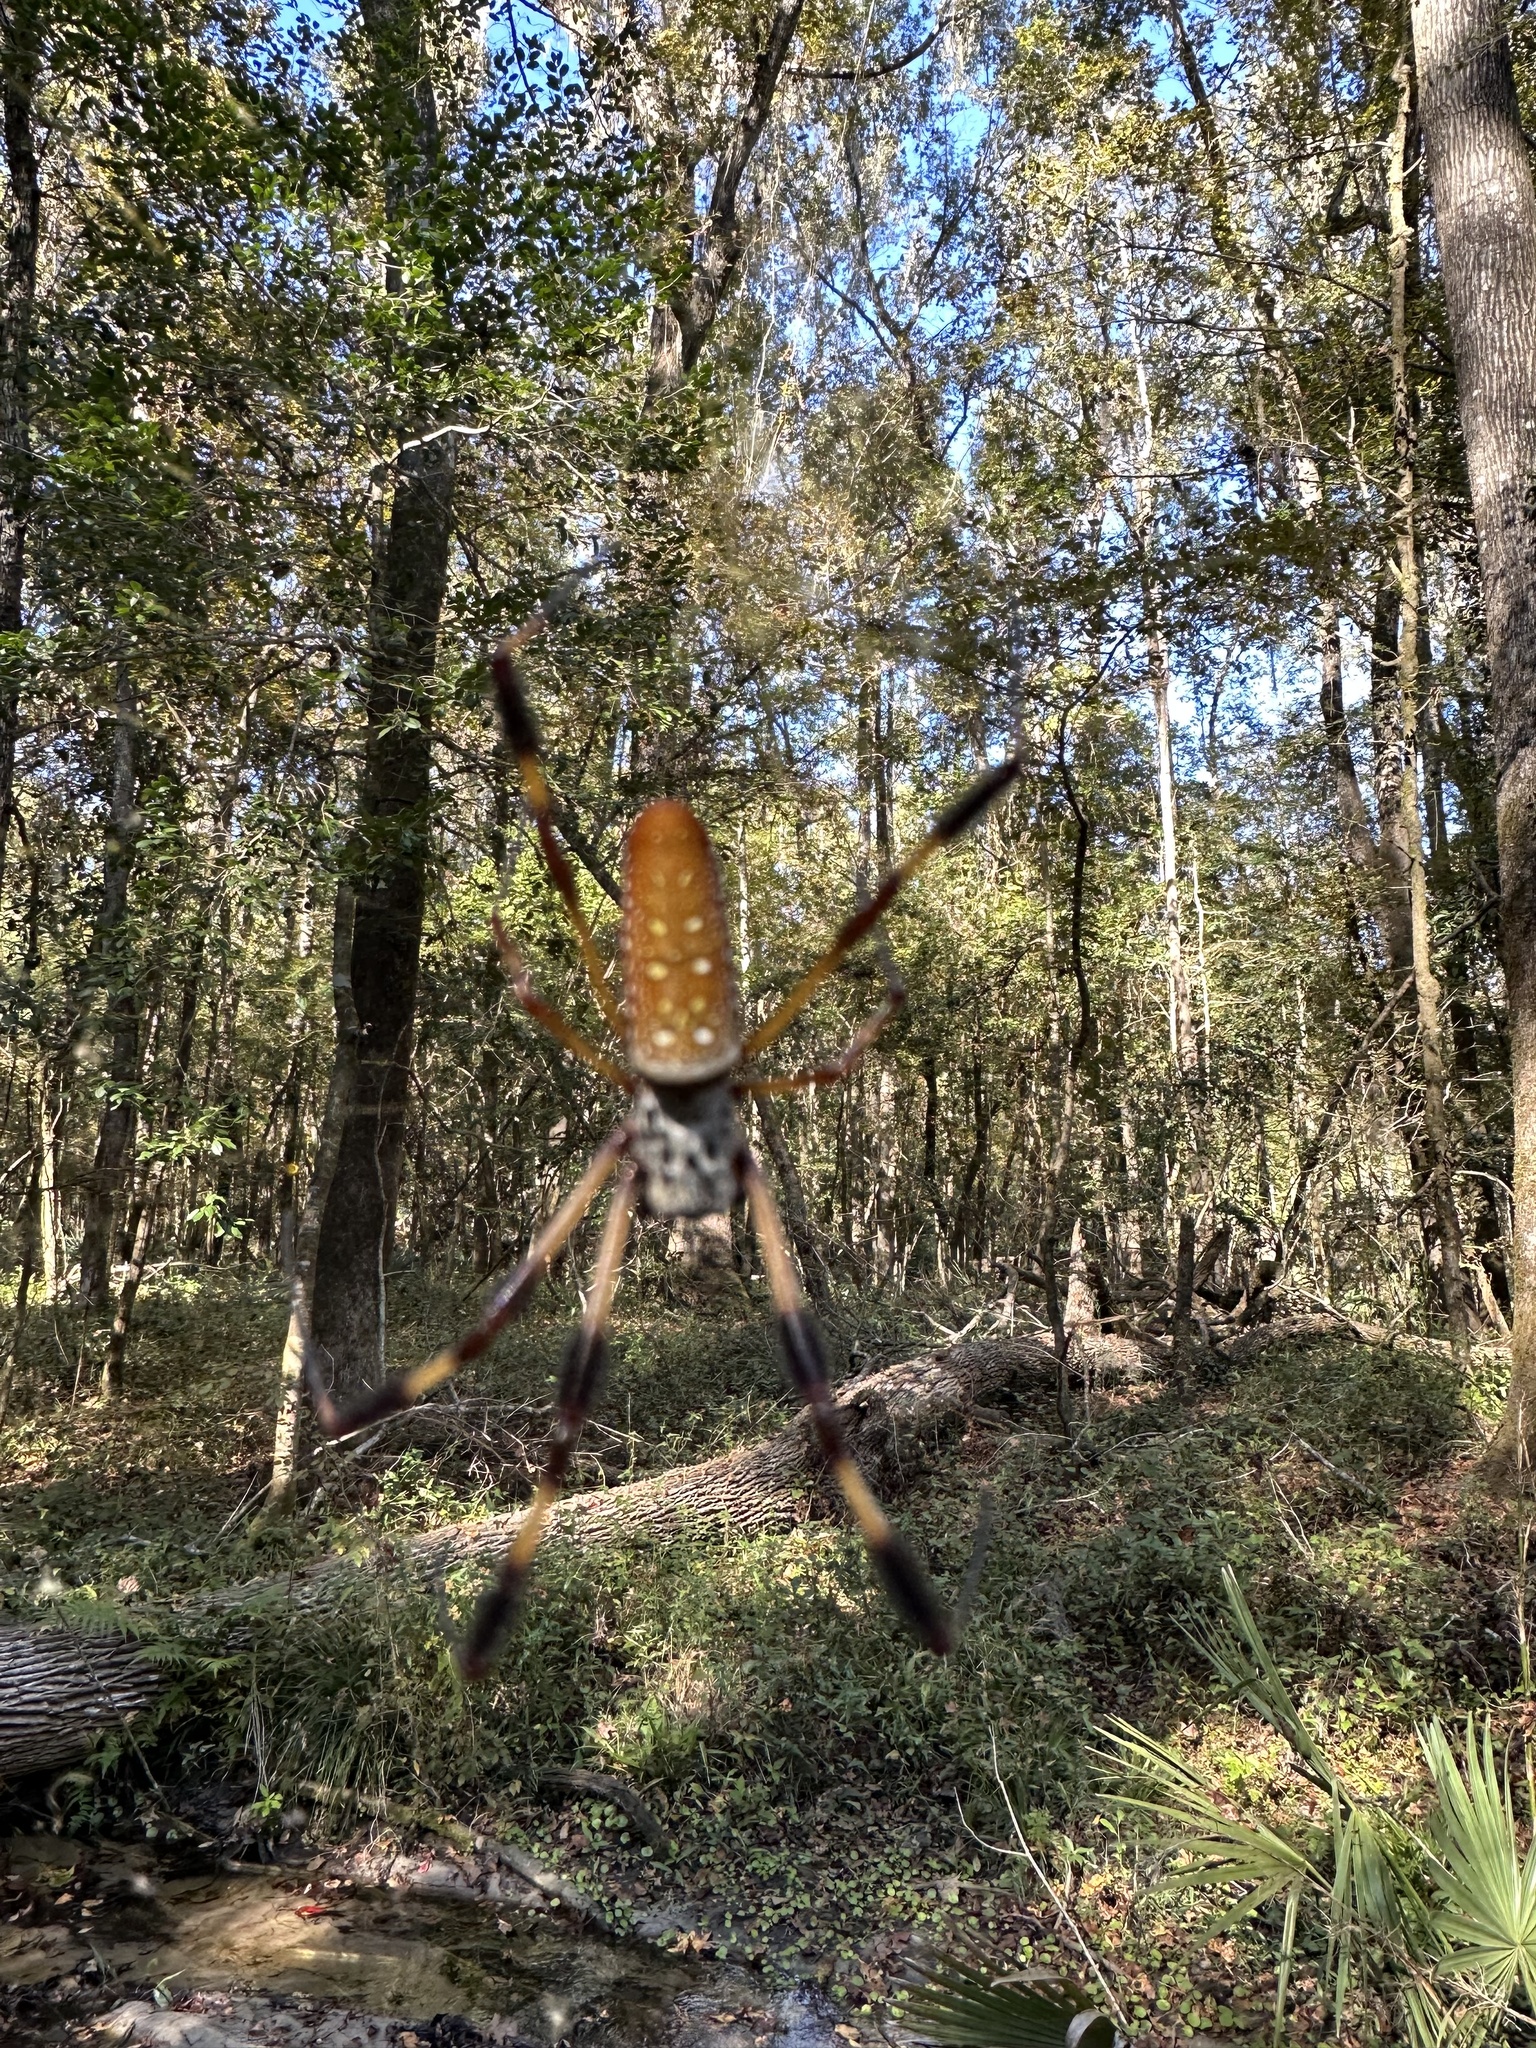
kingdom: Animalia
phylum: Arthropoda
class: Arachnida
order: Araneae
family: Araneidae
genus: Trichonephila
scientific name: Trichonephila clavipes
